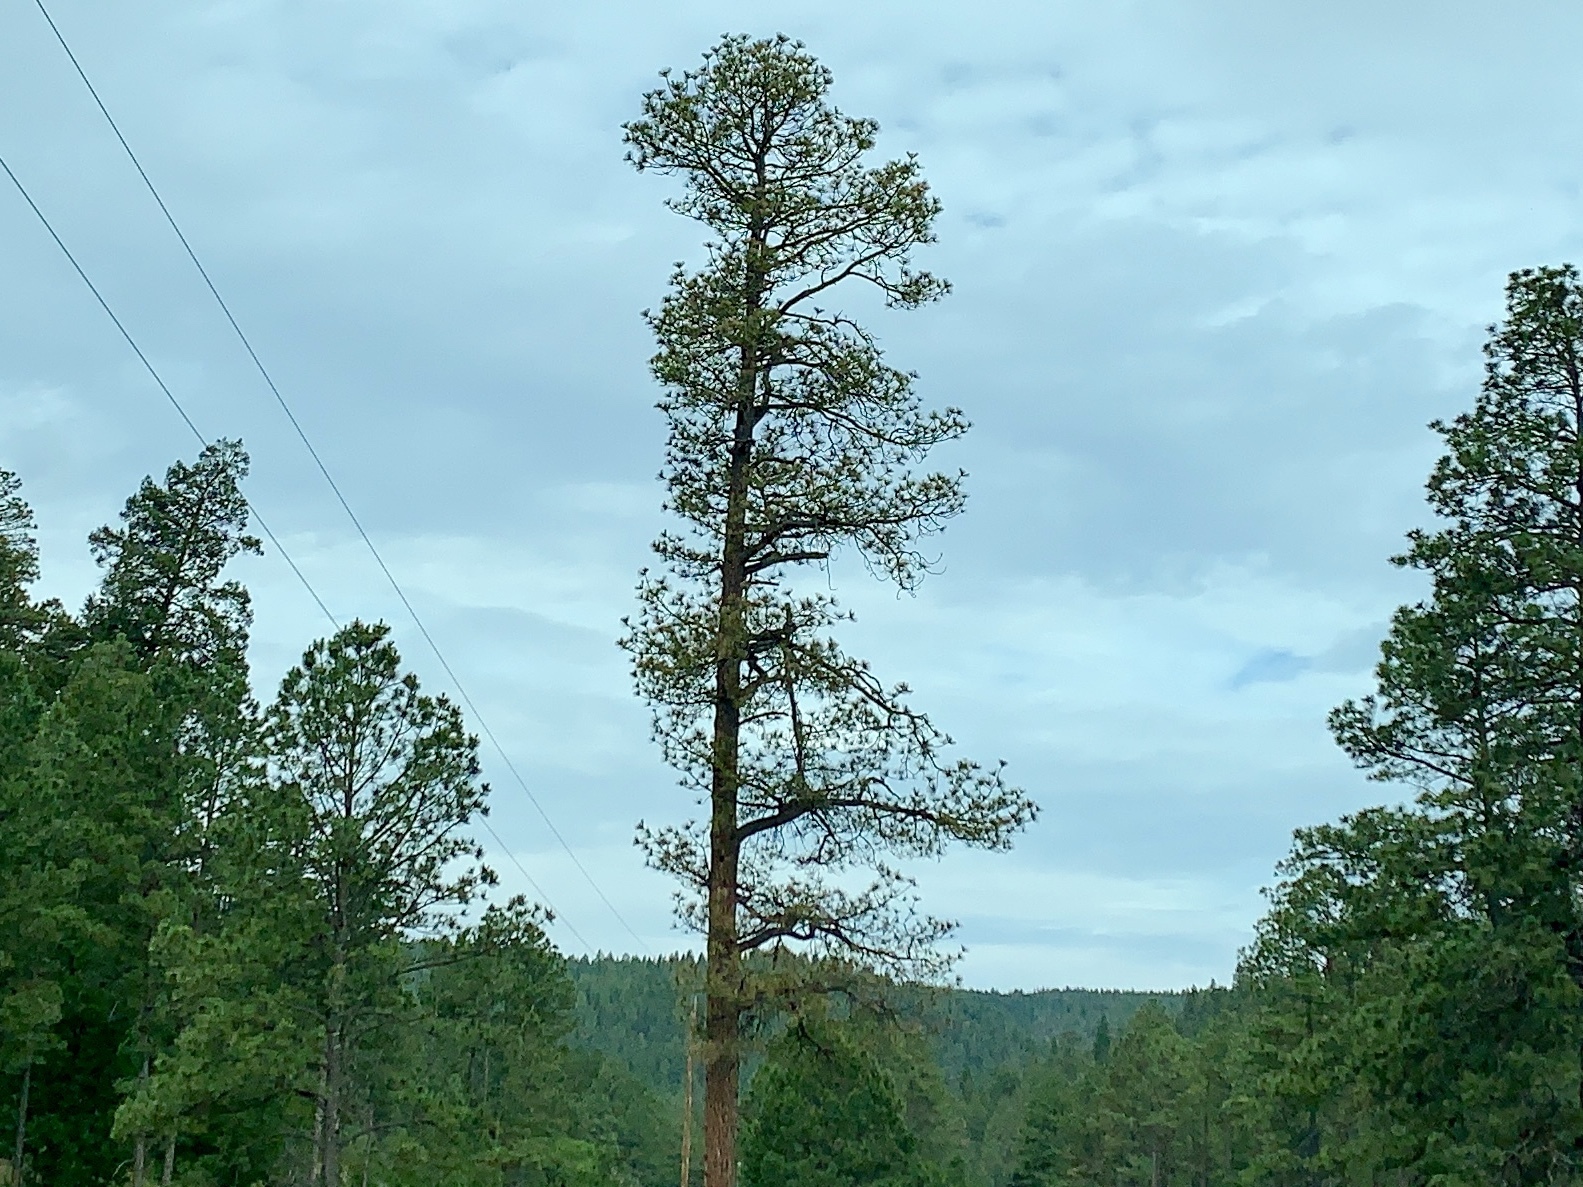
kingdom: Plantae
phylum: Tracheophyta
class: Pinopsida
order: Pinales
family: Pinaceae
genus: Pinus
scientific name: Pinus ponderosa
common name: Western yellow-pine
